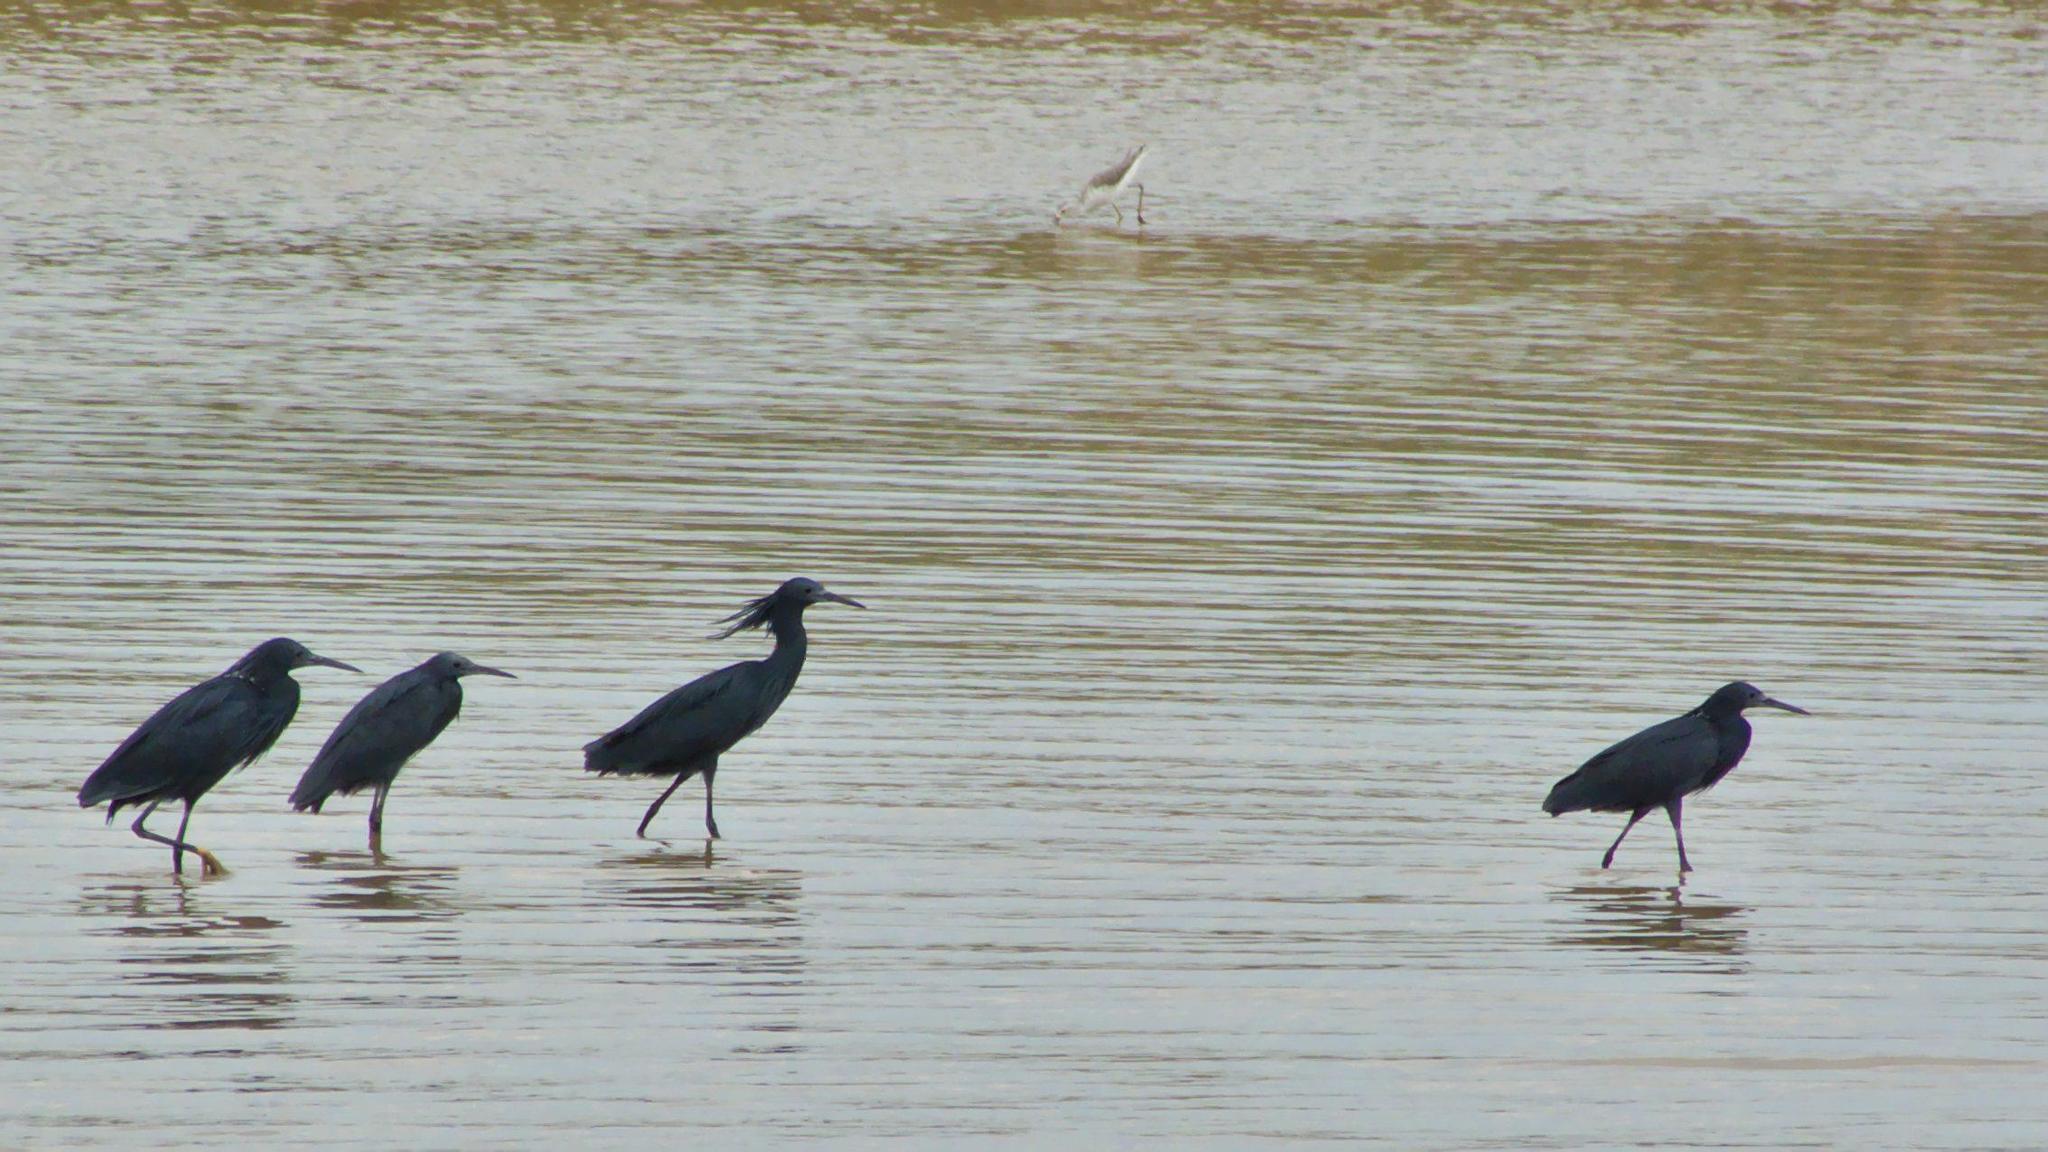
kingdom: Animalia
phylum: Chordata
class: Aves
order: Pelecaniformes
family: Ardeidae
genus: Egretta
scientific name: Egretta ardesiaca
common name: Black heron
